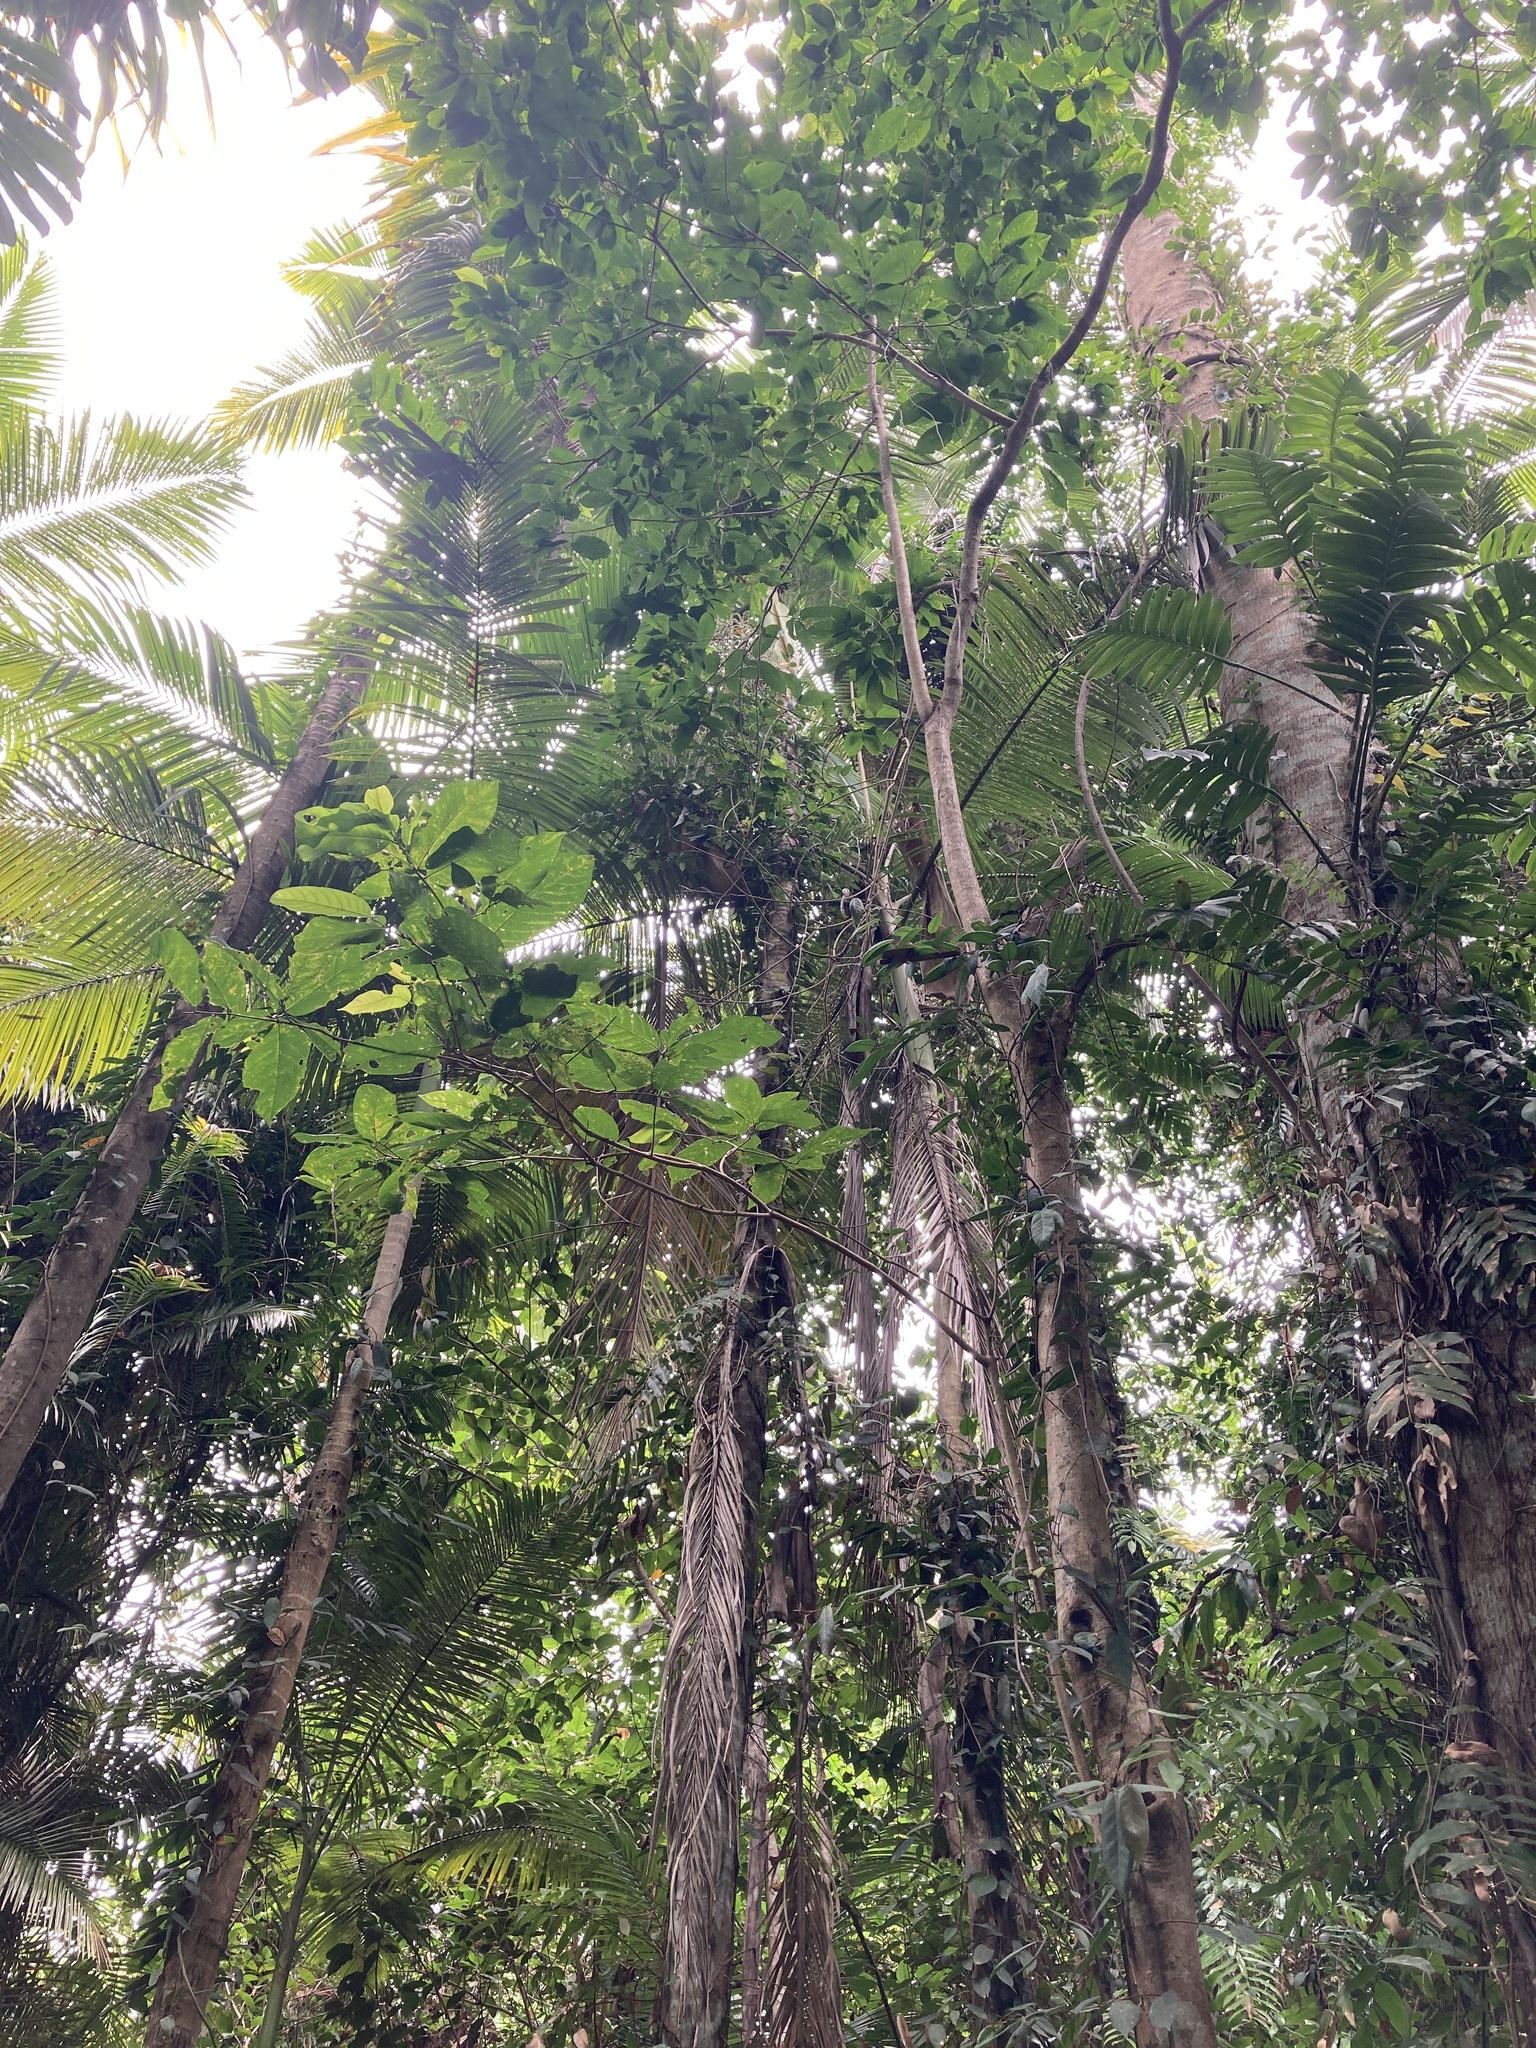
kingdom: Plantae
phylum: Tracheophyta
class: Liliopsida
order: Arecales
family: Arecaceae
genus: Archontophoenix
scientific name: Archontophoenix alexandrae
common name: Alexandra palm
